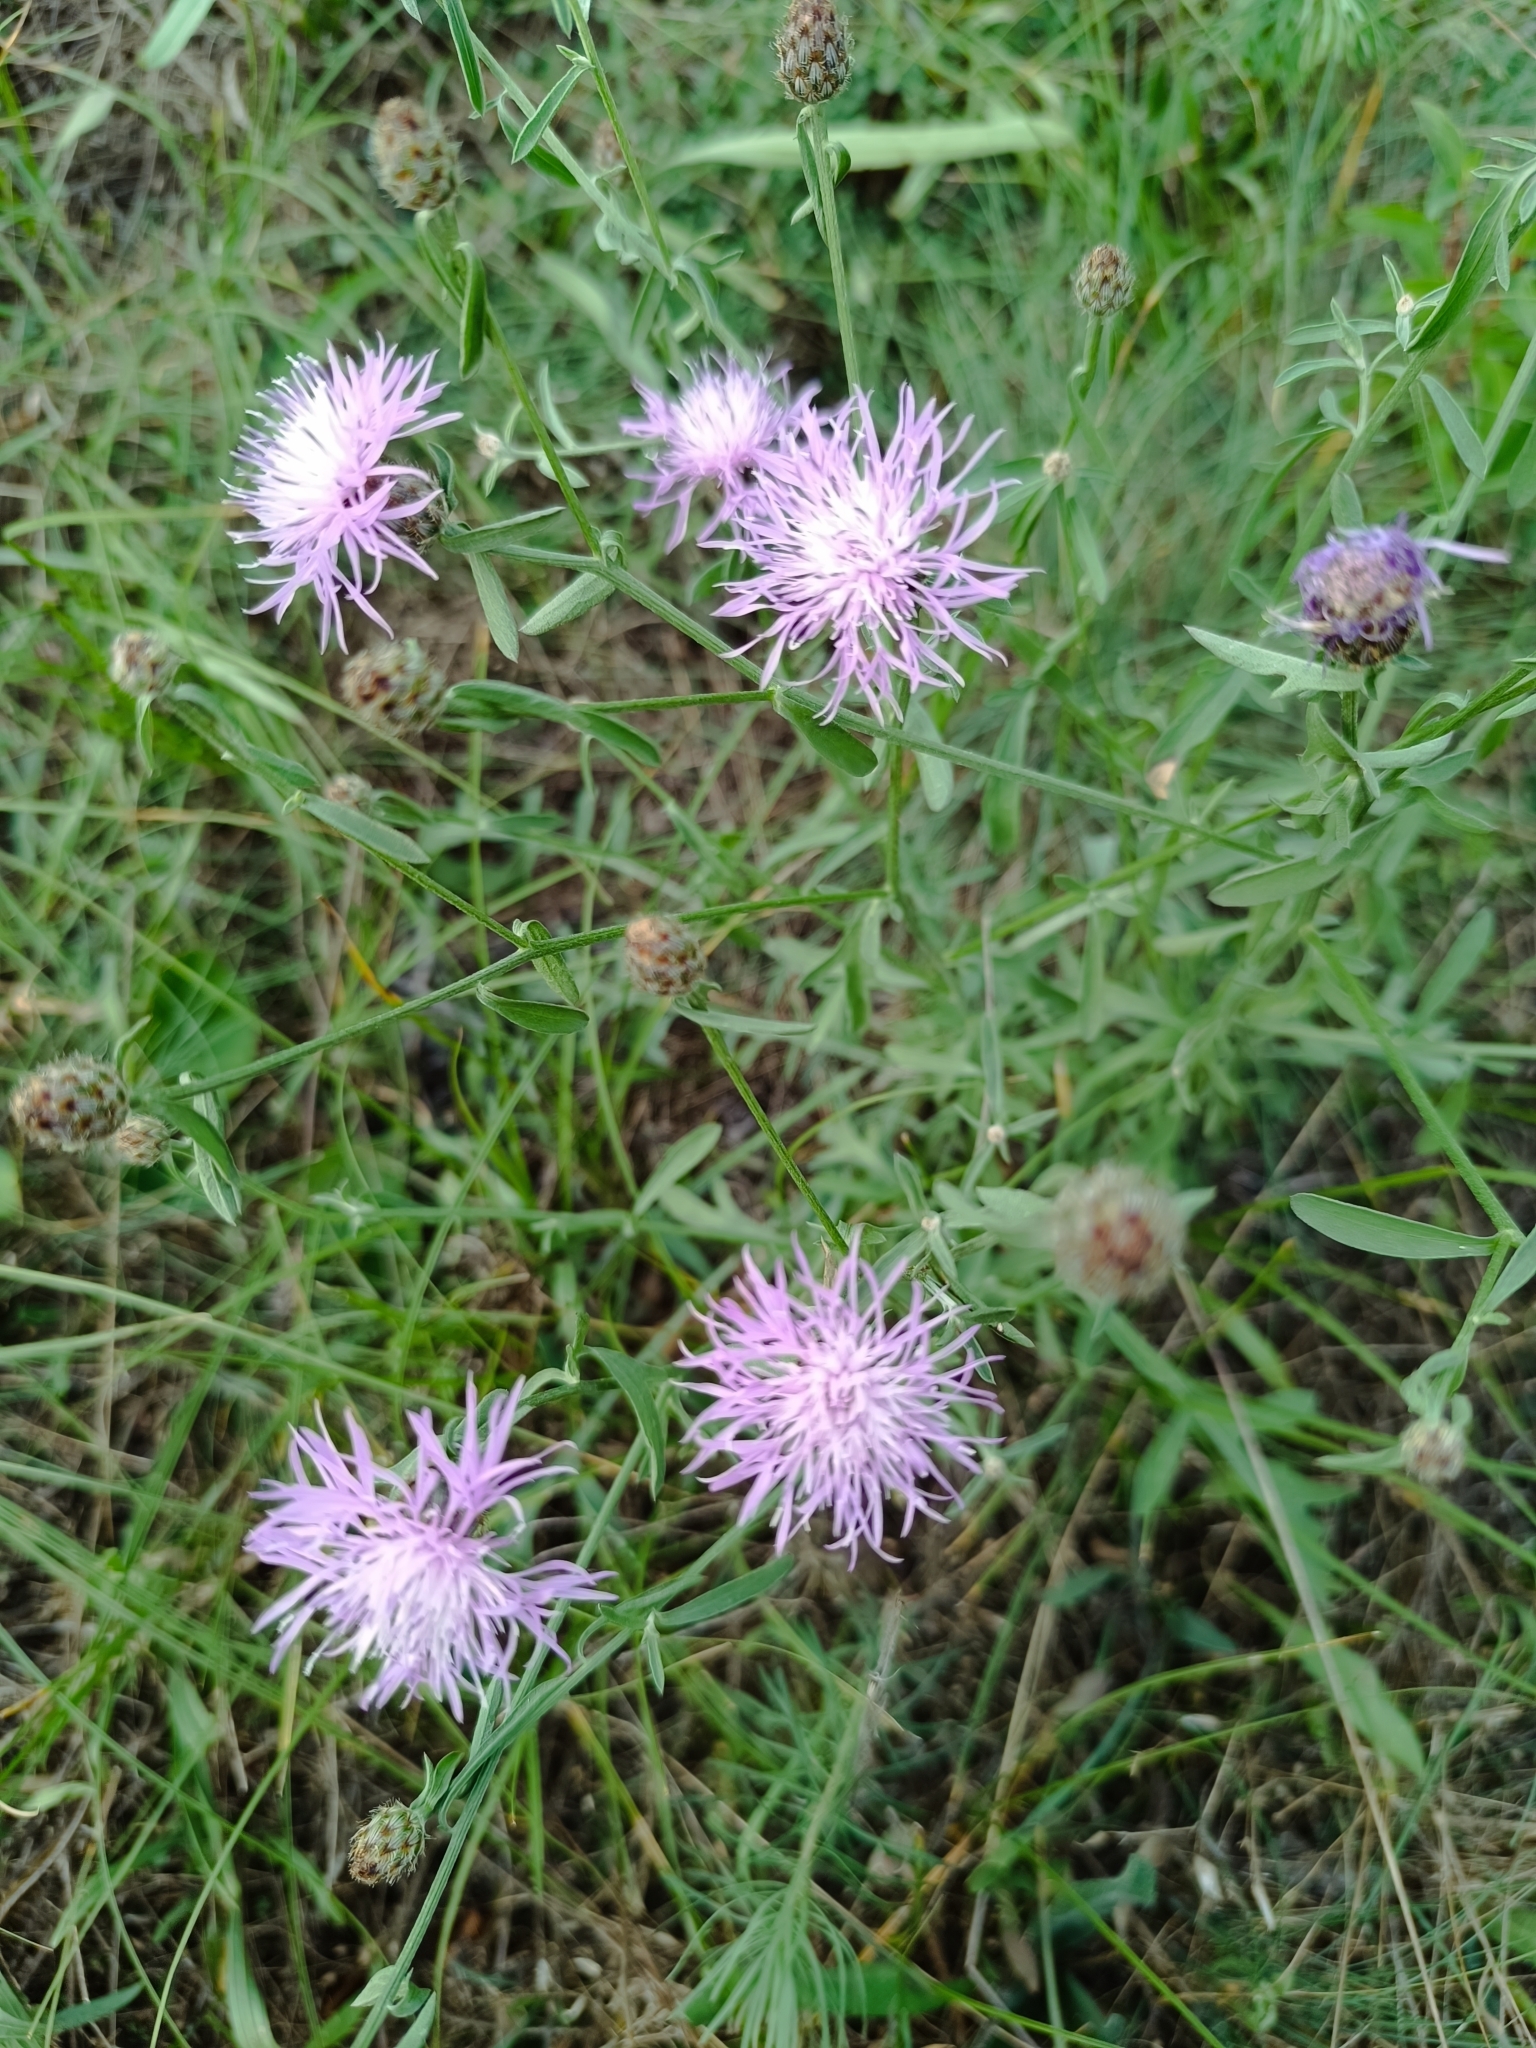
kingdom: Plantae
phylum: Tracheophyta
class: Magnoliopsida
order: Asterales
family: Asteraceae
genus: Centaurea
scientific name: Centaurea stoebe
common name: Spotted knapweed
